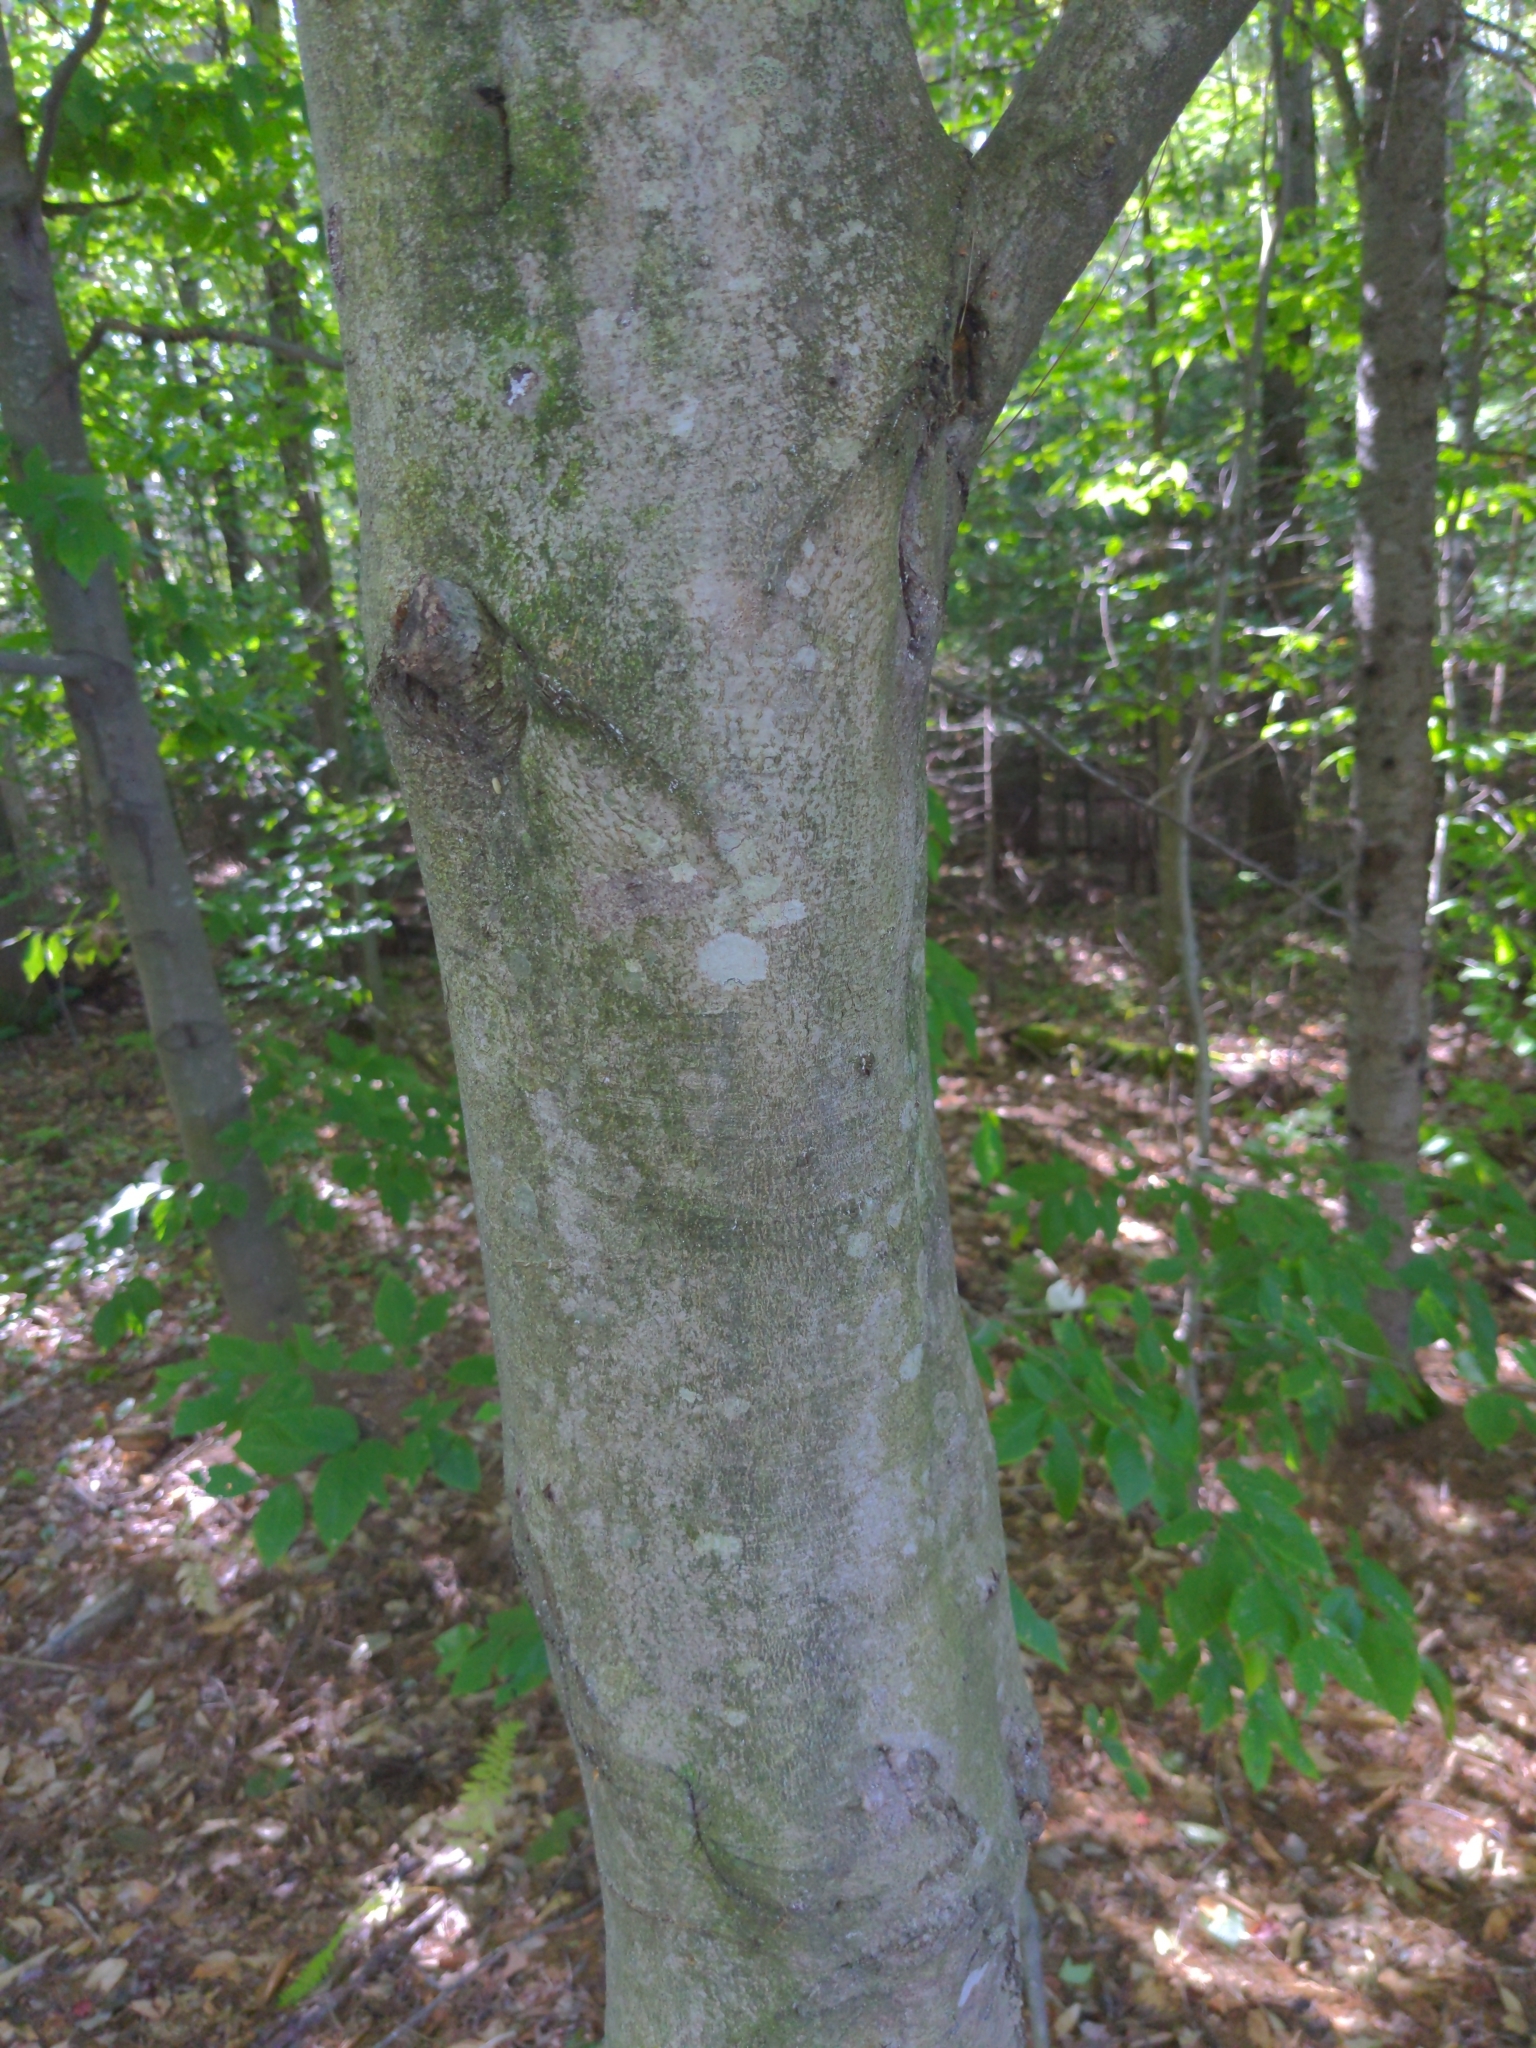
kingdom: Plantae
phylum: Tracheophyta
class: Magnoliopsida
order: Fagales
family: Fagaceae
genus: Fagus
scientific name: Fagus grandifolia
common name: American beech
